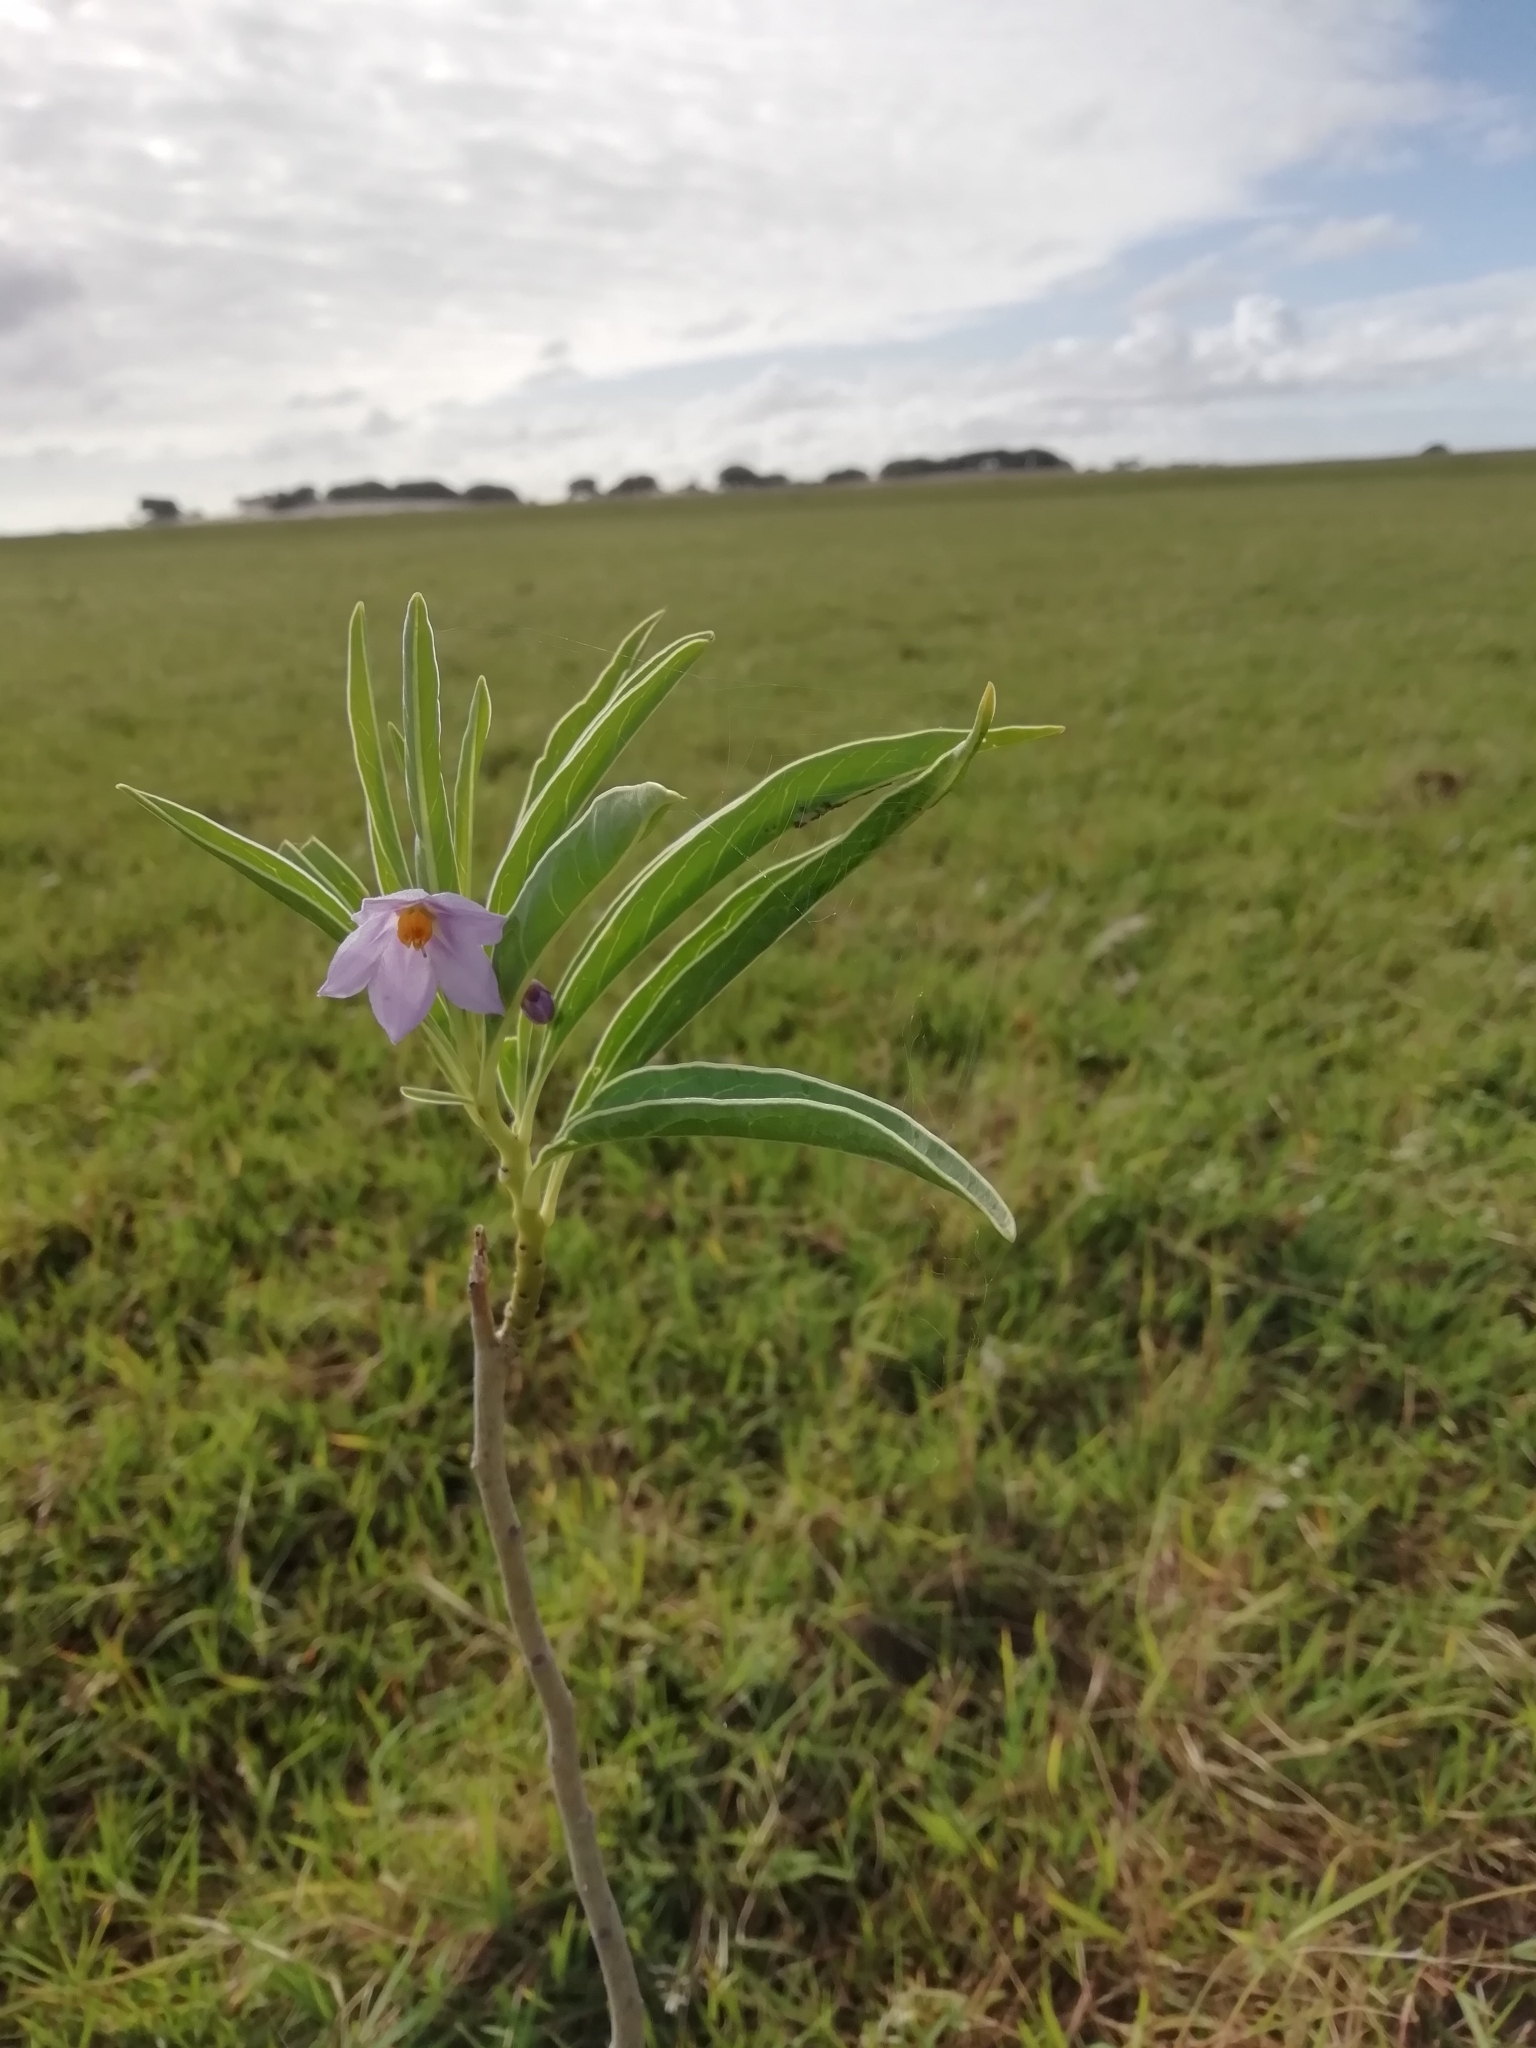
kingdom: Plantae
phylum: Tracheophyta
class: Magnoliopsida
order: Solanales
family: Solanaceae
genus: Solanum
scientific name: Solanum glaucophyllum
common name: Waxyleaf nightshade
